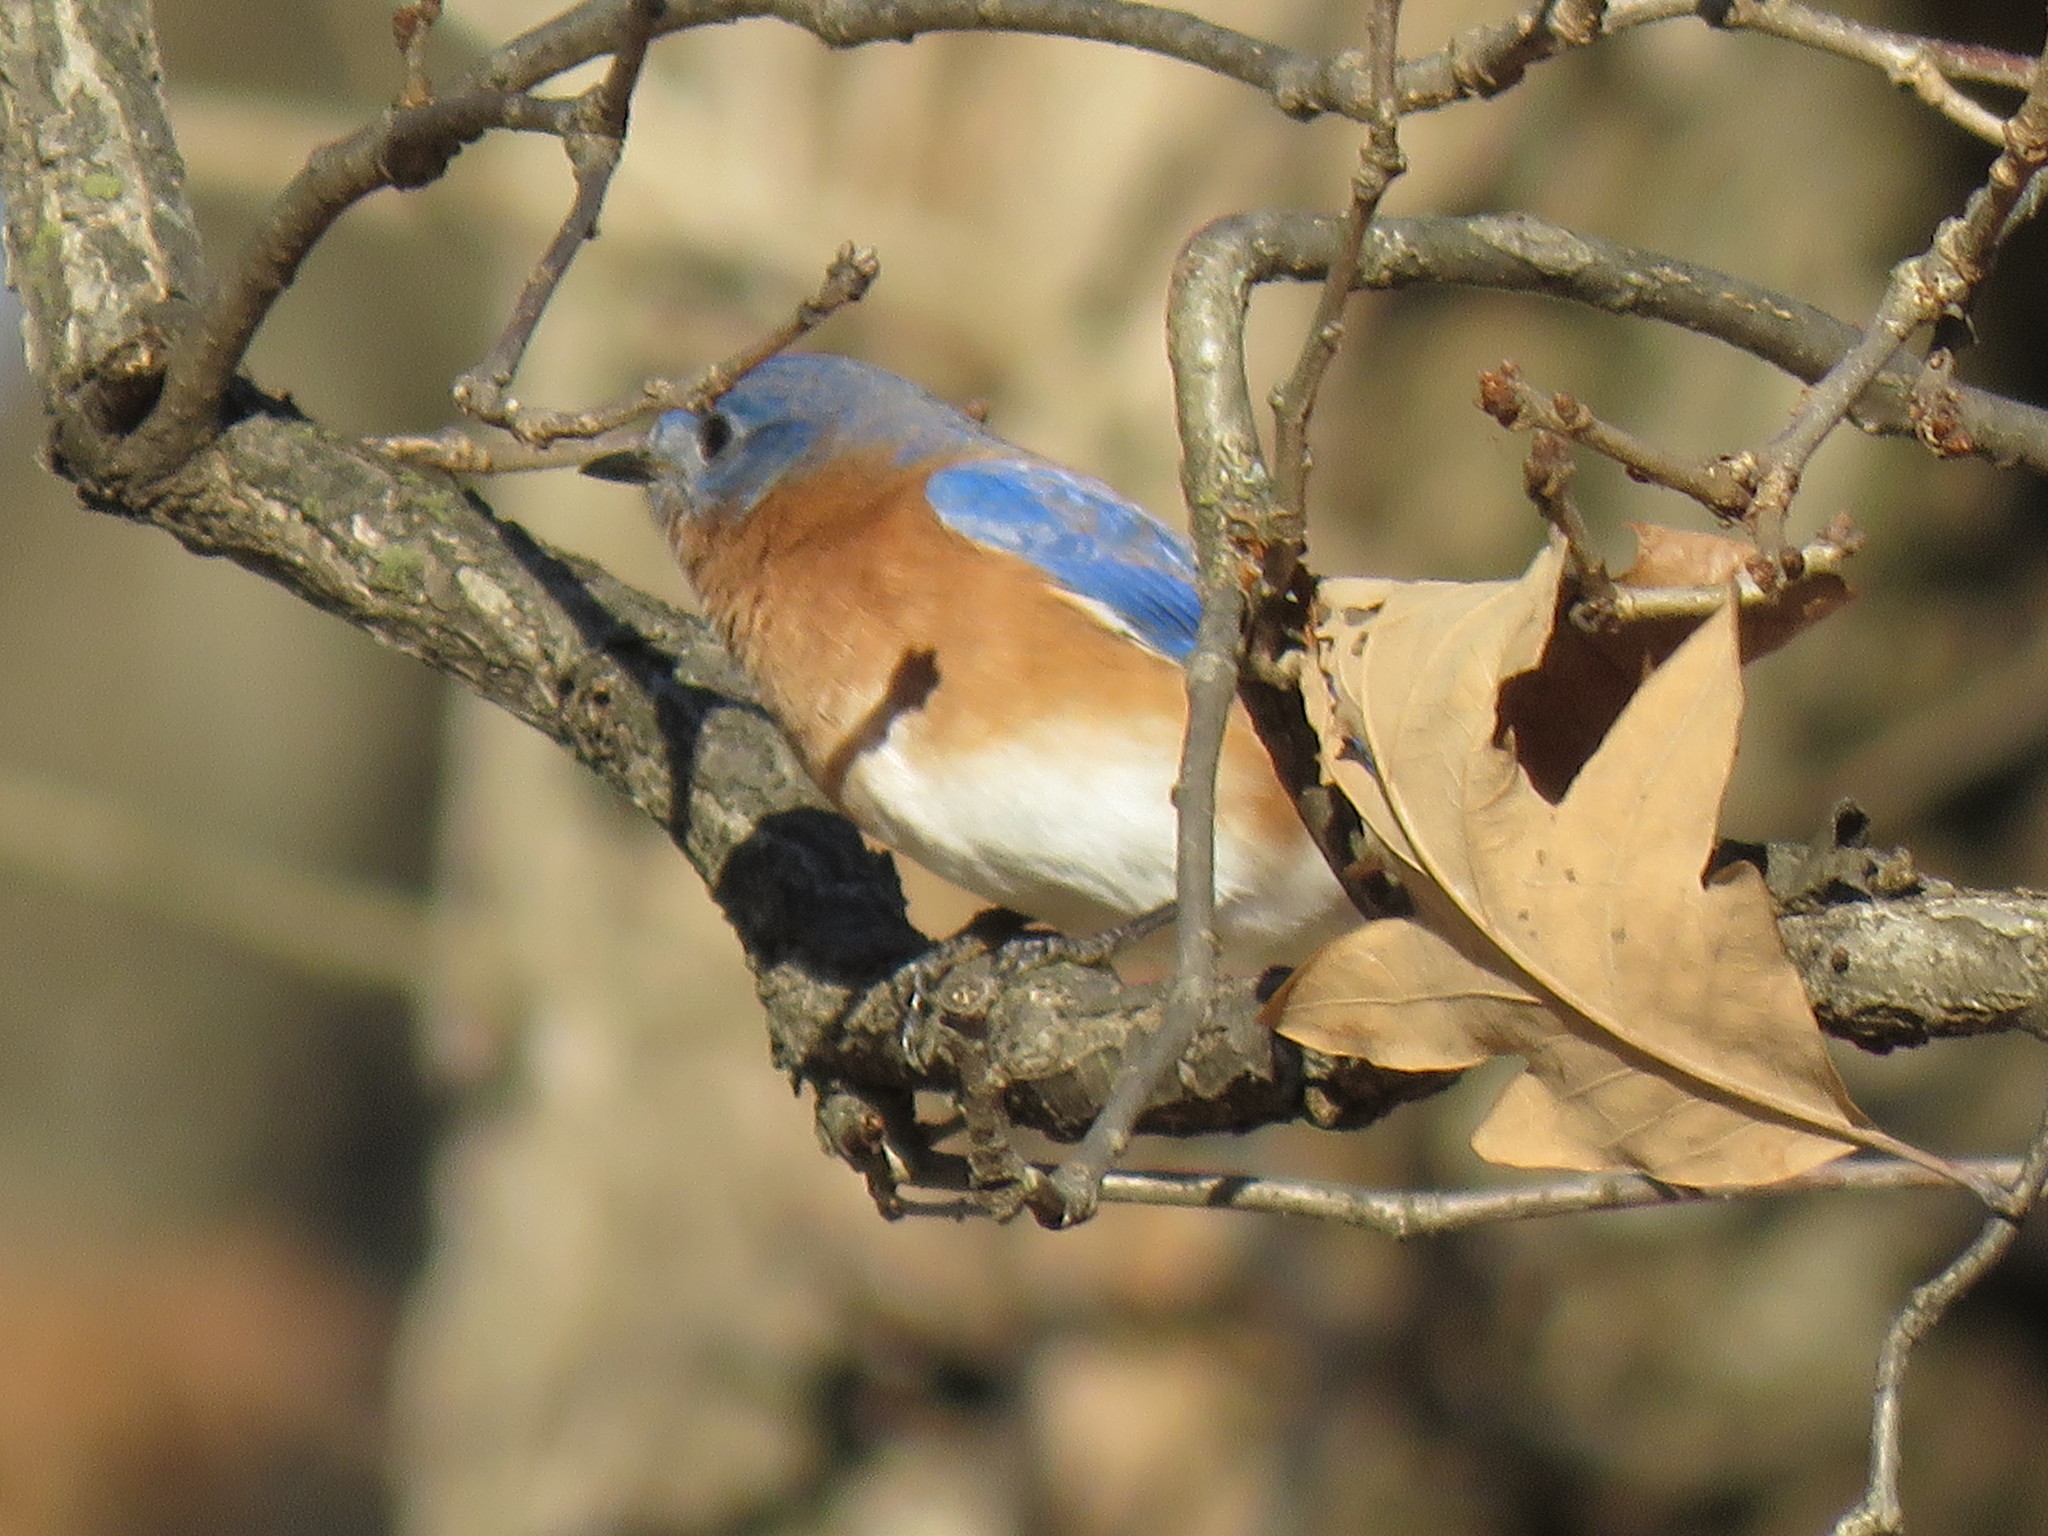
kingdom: Animalia
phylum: Chordata
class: Aves
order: Passeriformes
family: Turdidae
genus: Sialia
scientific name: Sialia sialis
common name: Eastern bluebird
